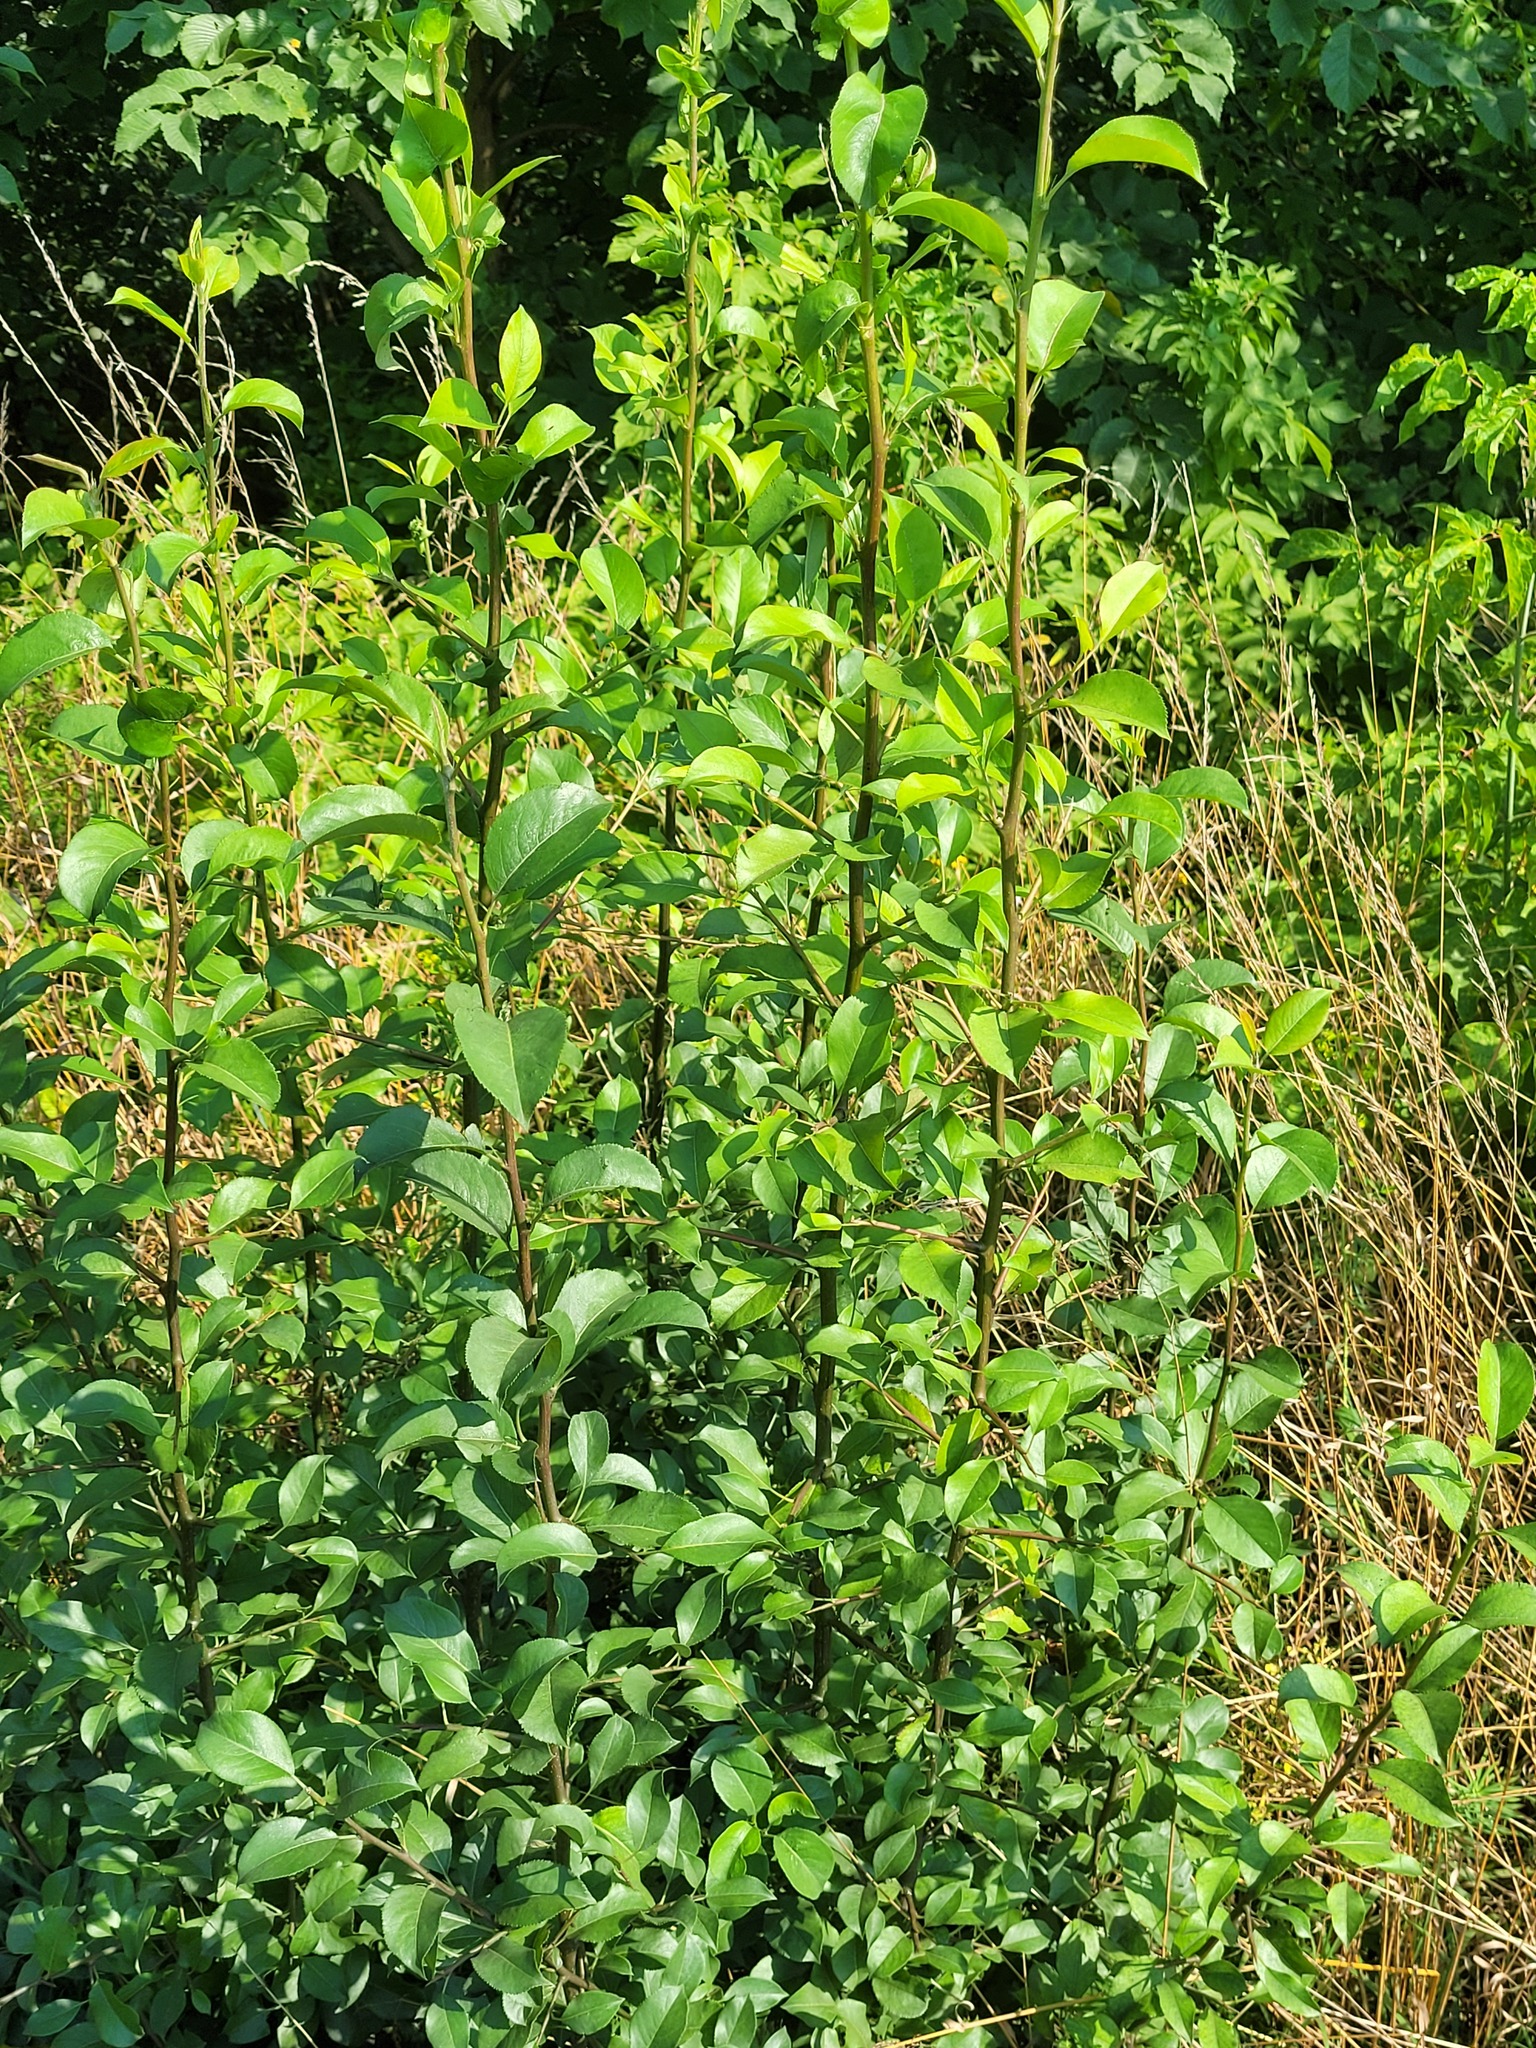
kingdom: Plantae
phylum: Tracheophyta
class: Magnoliopsida
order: Rosales
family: Rosaceae
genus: Pyrus
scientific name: Pyrus communis
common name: Pear
